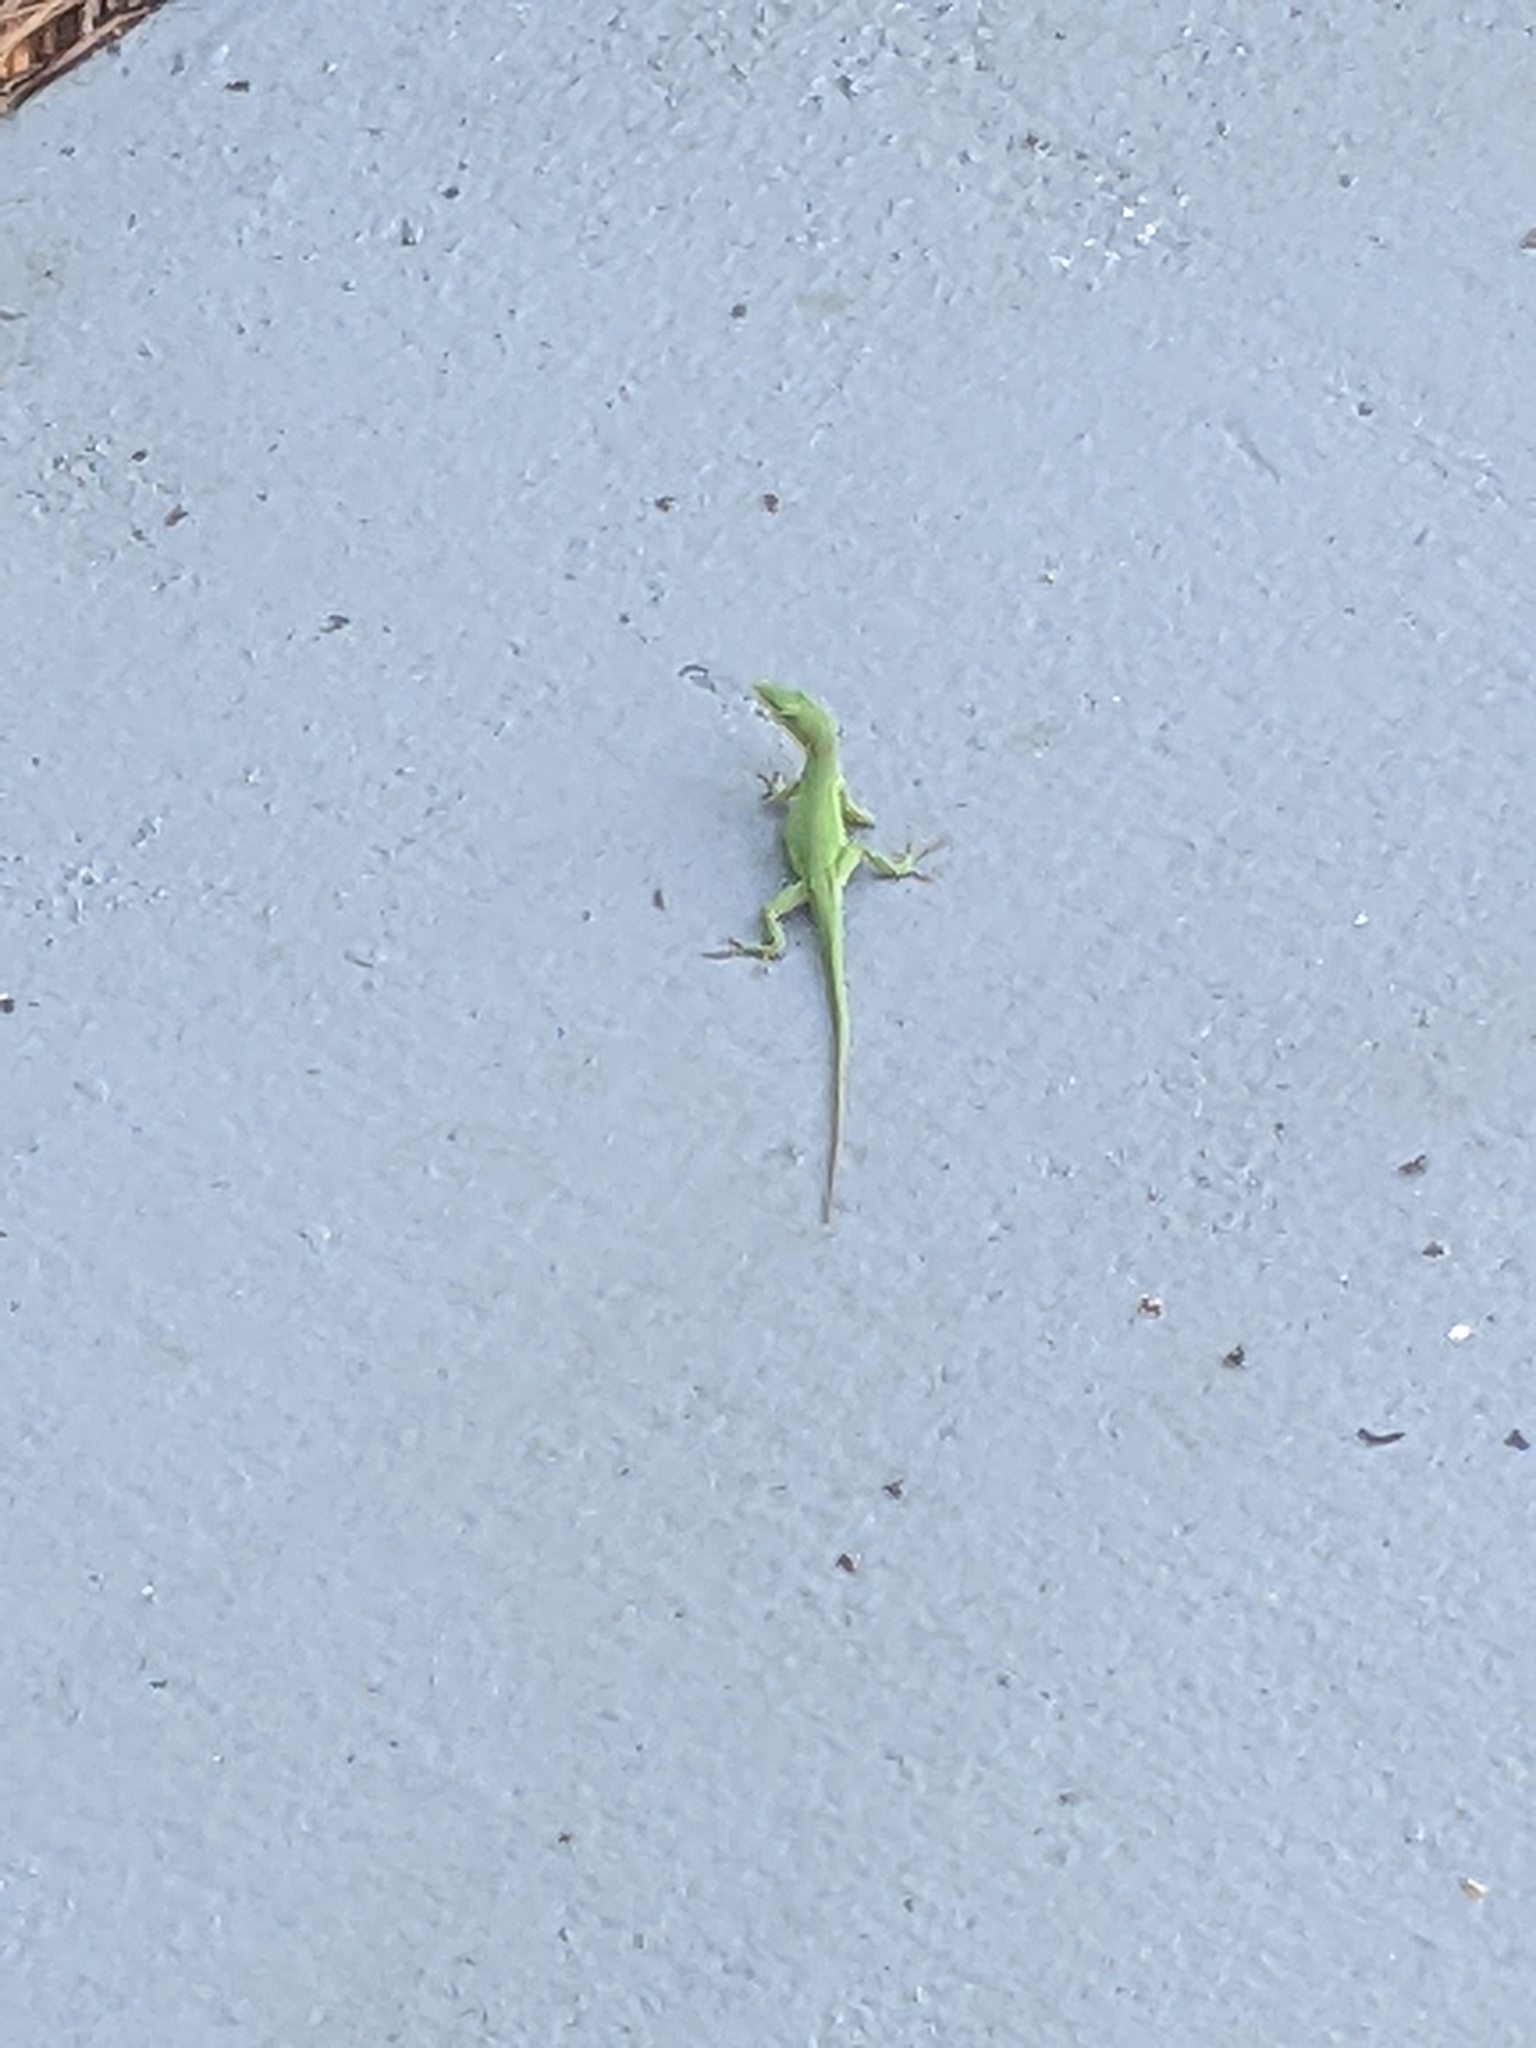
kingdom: Animalia
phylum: Chordata
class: Squamata
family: Dactyloidae
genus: Anolis
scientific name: Anolis carolinensis
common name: Green anole
